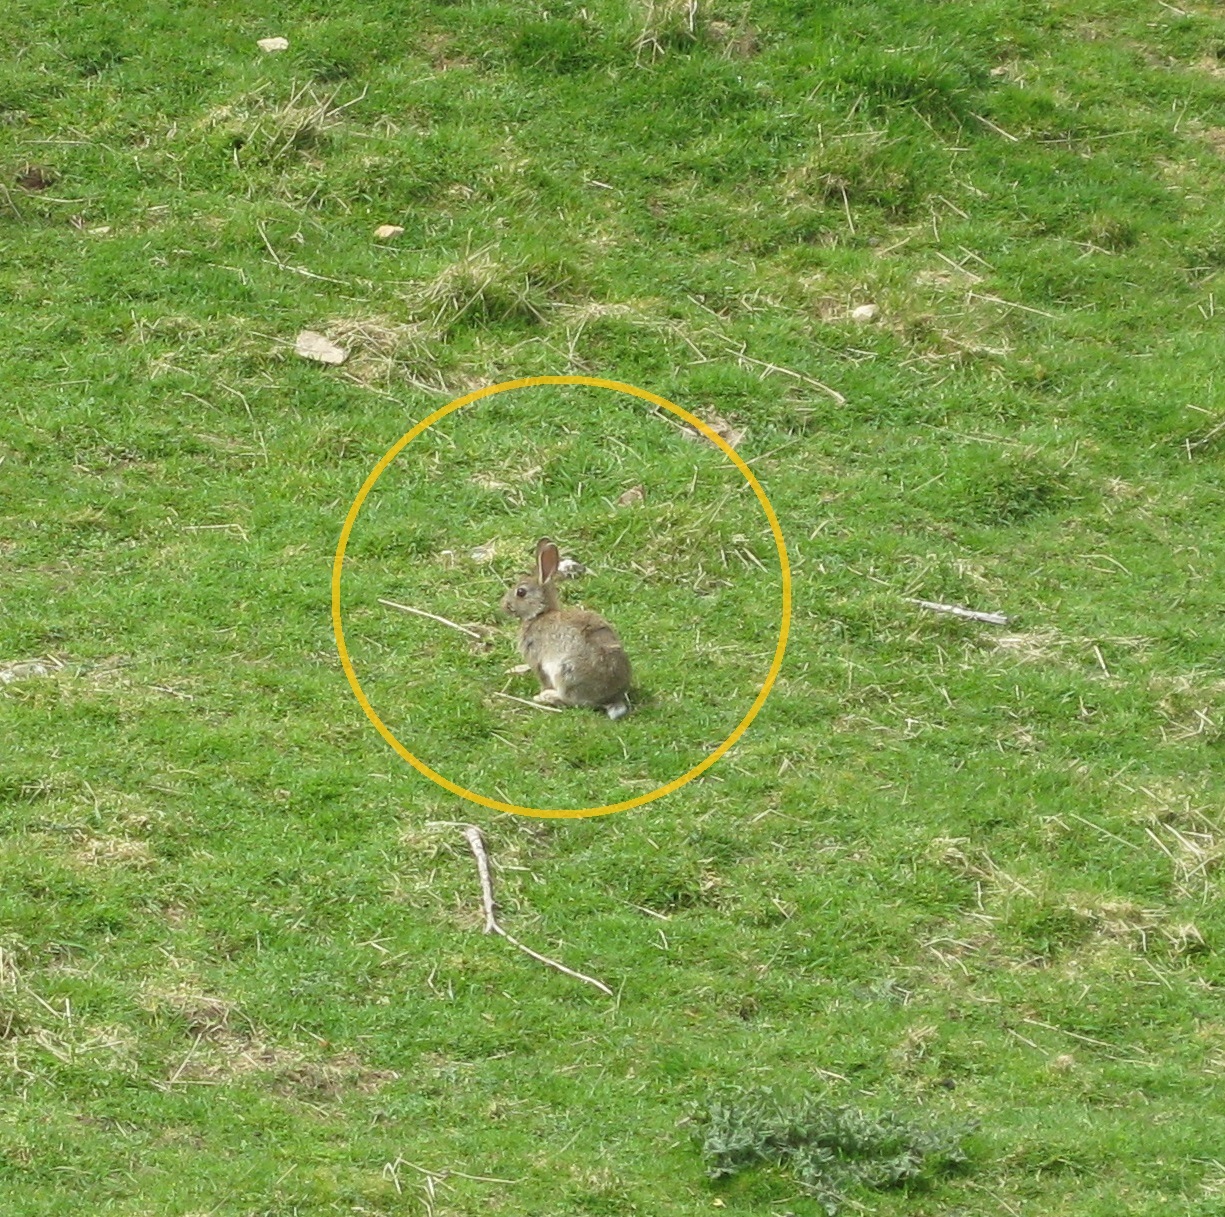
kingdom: Animalia
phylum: Chordata
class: Mammalia
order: Lagomorpha
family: Leporidae
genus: Oryctolagus
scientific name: Oryctolagus cuniculus
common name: European rabbit
